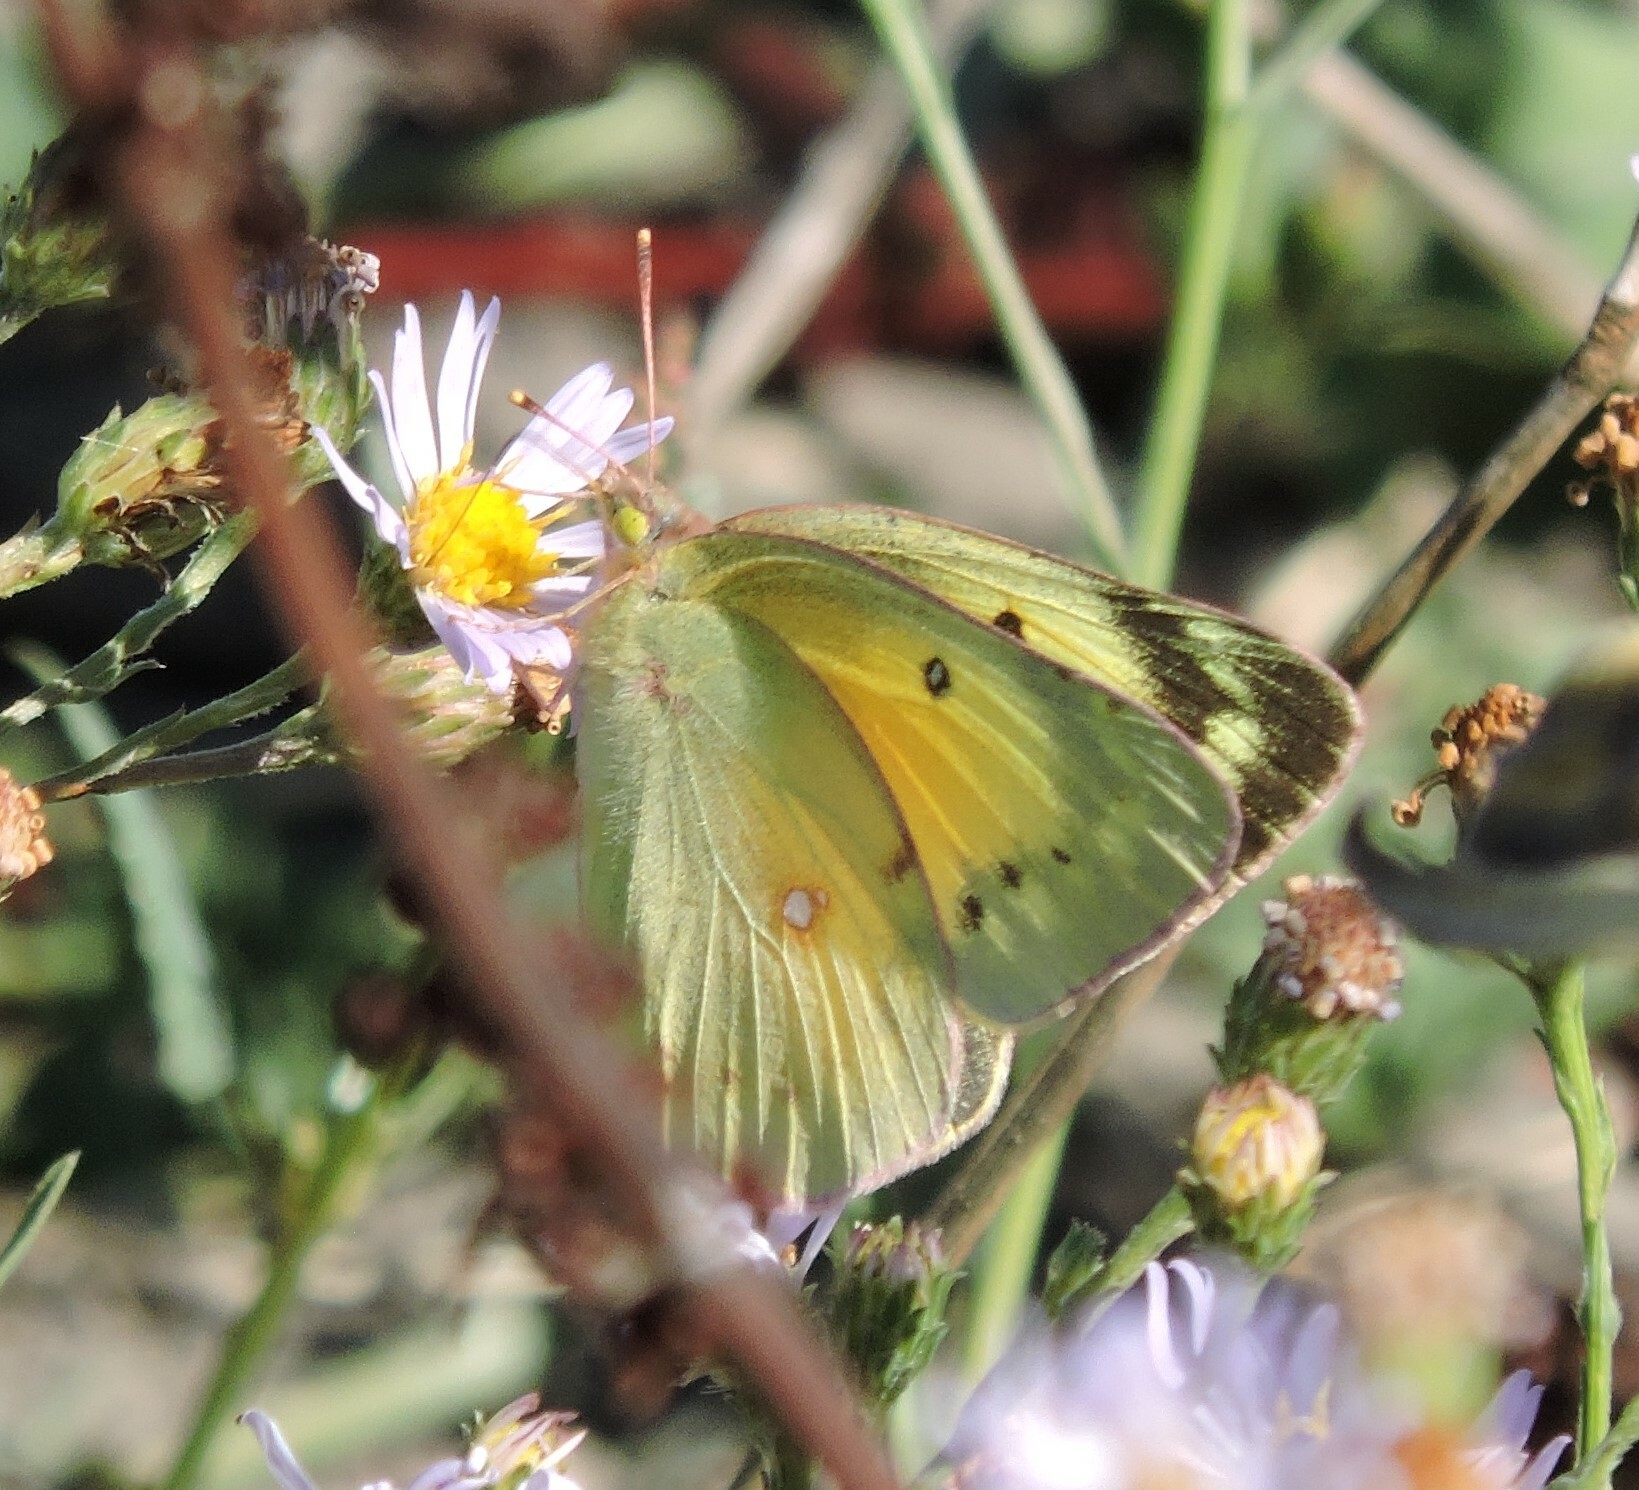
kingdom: Animalia
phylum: Arthropoda
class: Insecta
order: Lepidoptera
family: Pieridae
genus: Colias
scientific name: Colias eurytheme
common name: Alfalfa butterfly
